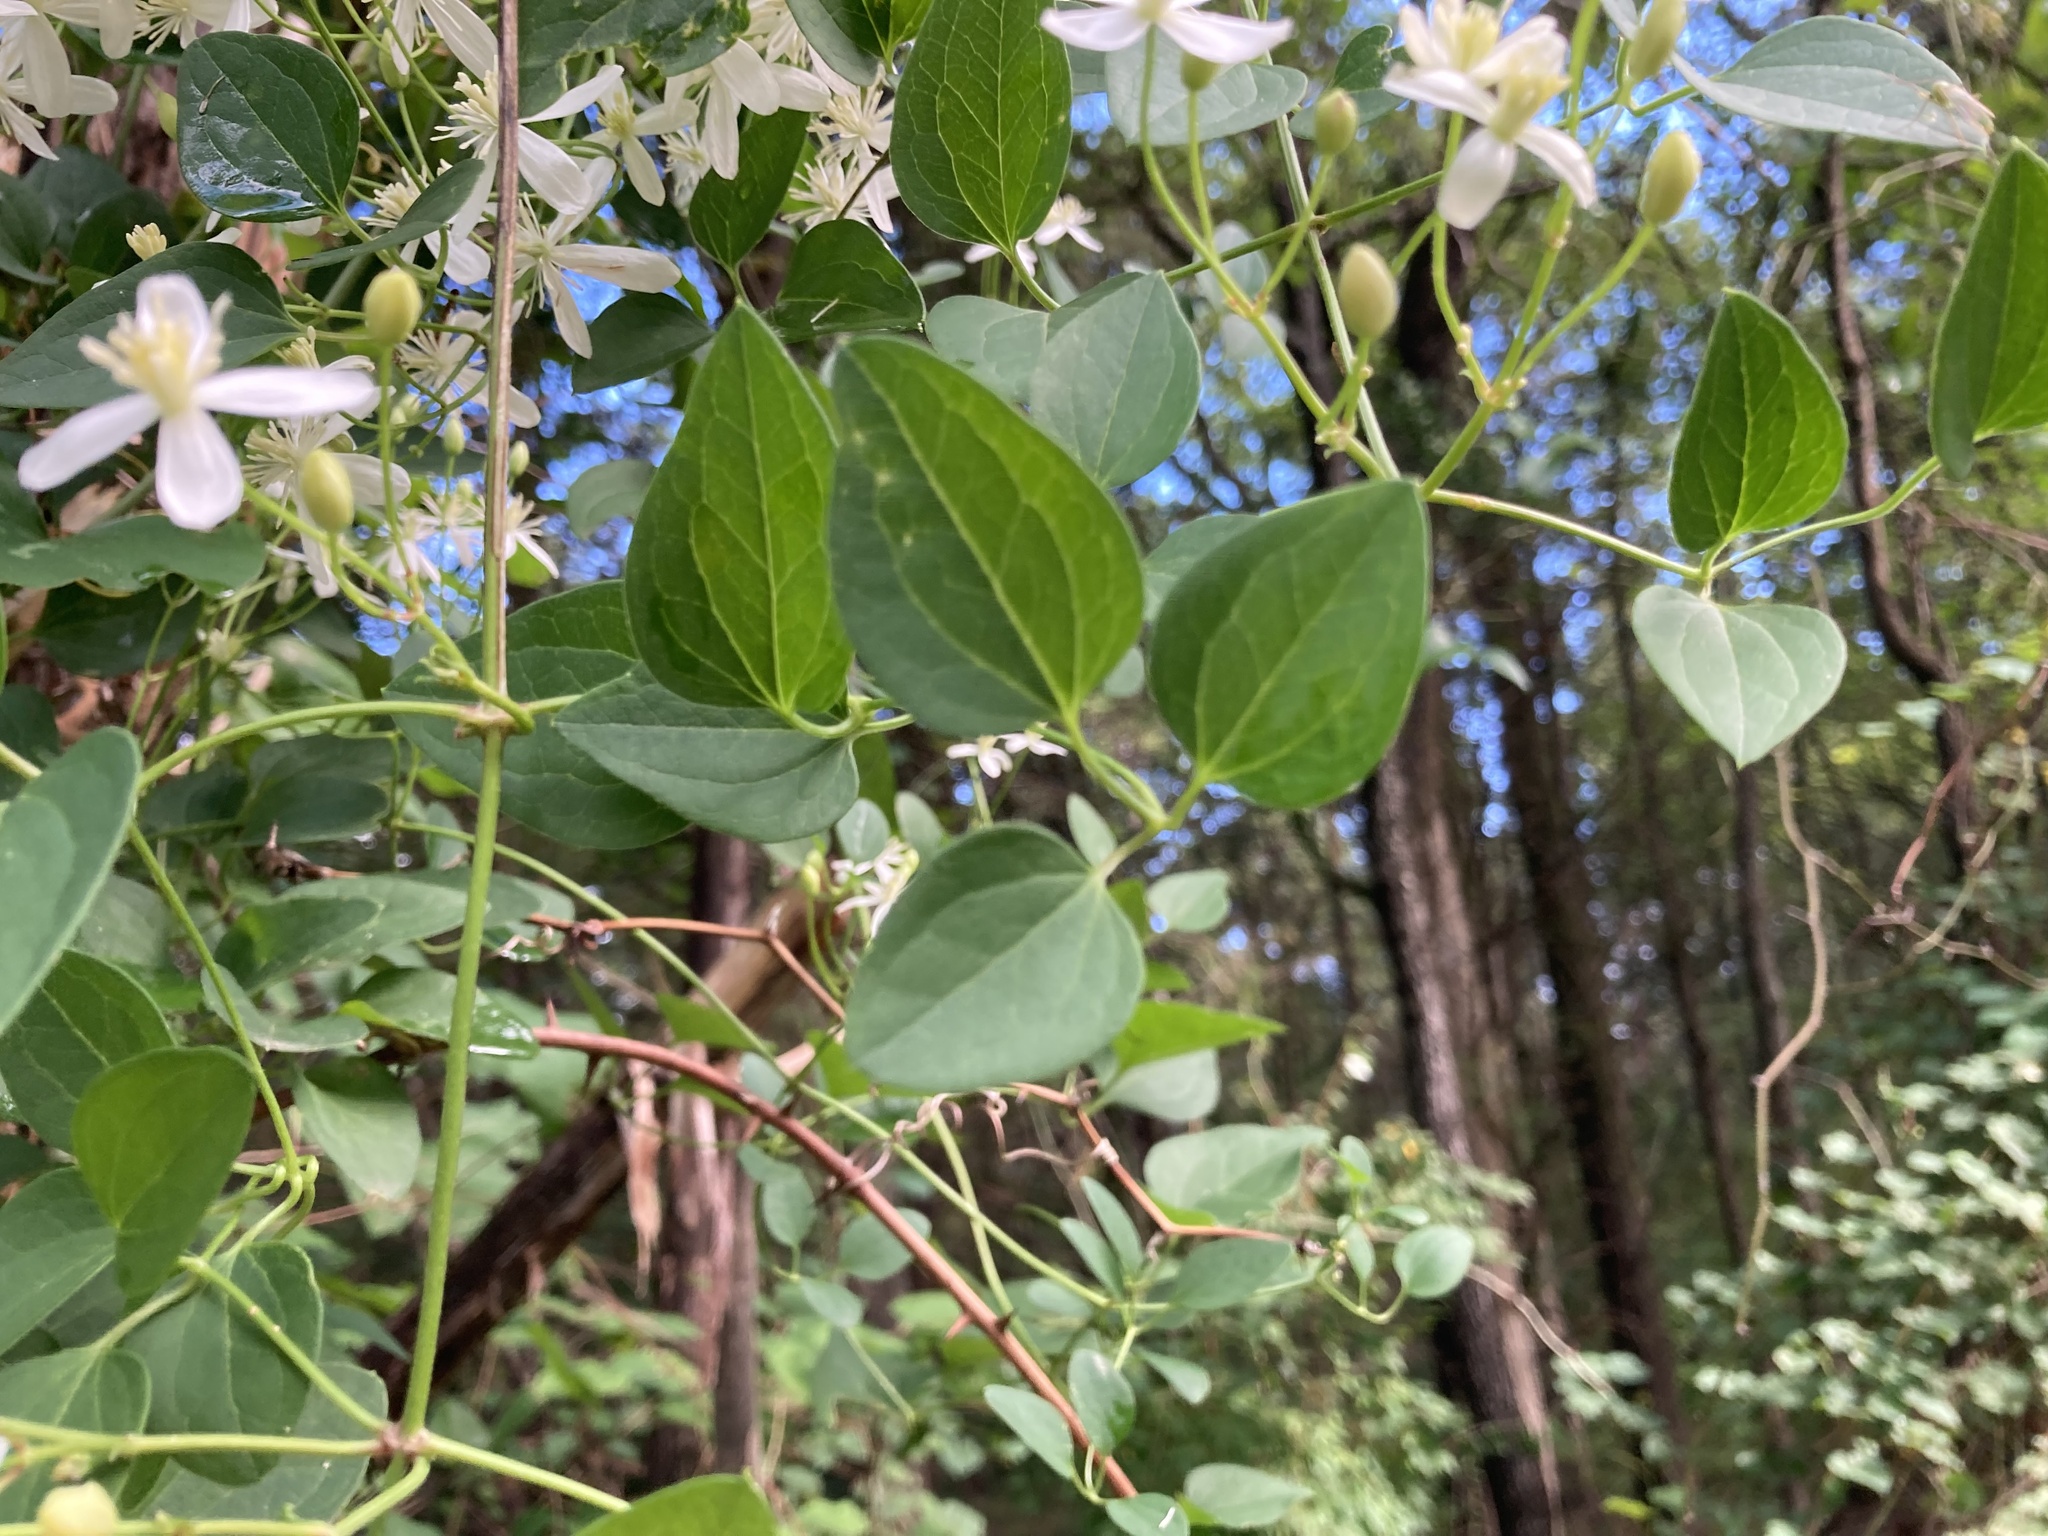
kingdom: Plantae
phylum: Tracheophyta
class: Magnoliopsida
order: Ranunculales
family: Ranunculaceae
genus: Clematis
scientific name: Clematis terniflora
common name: Sweet autumn clematis
